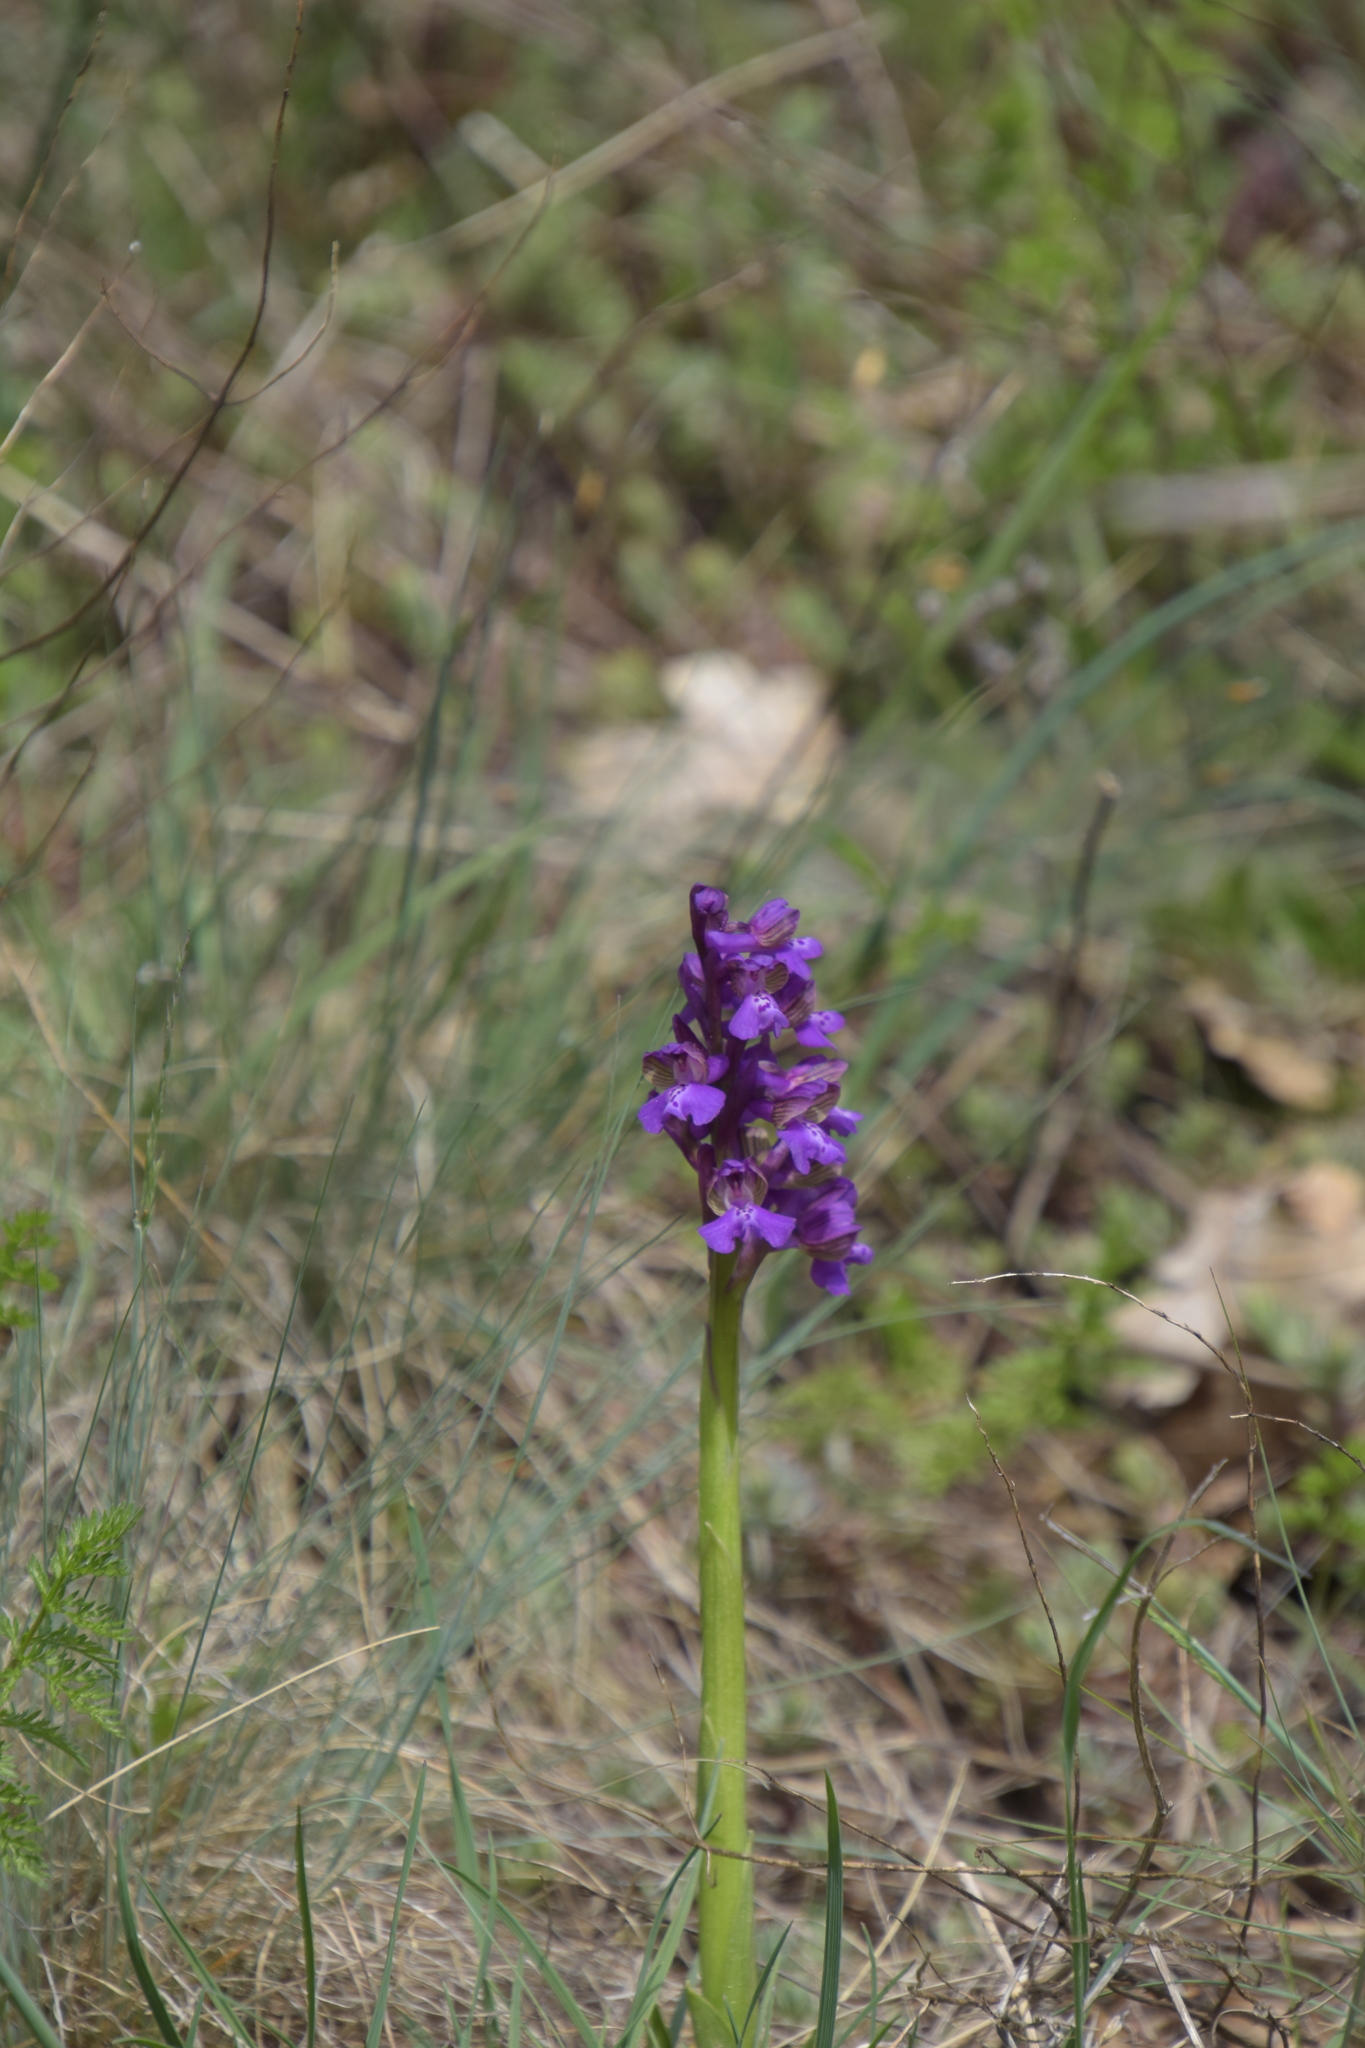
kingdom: Plantae
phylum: Tracheophyta
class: Liliopsida
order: Asparagales
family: Orchidaceae
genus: Anacamptis
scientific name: Anacamptis morio
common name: Green-winged orchid
